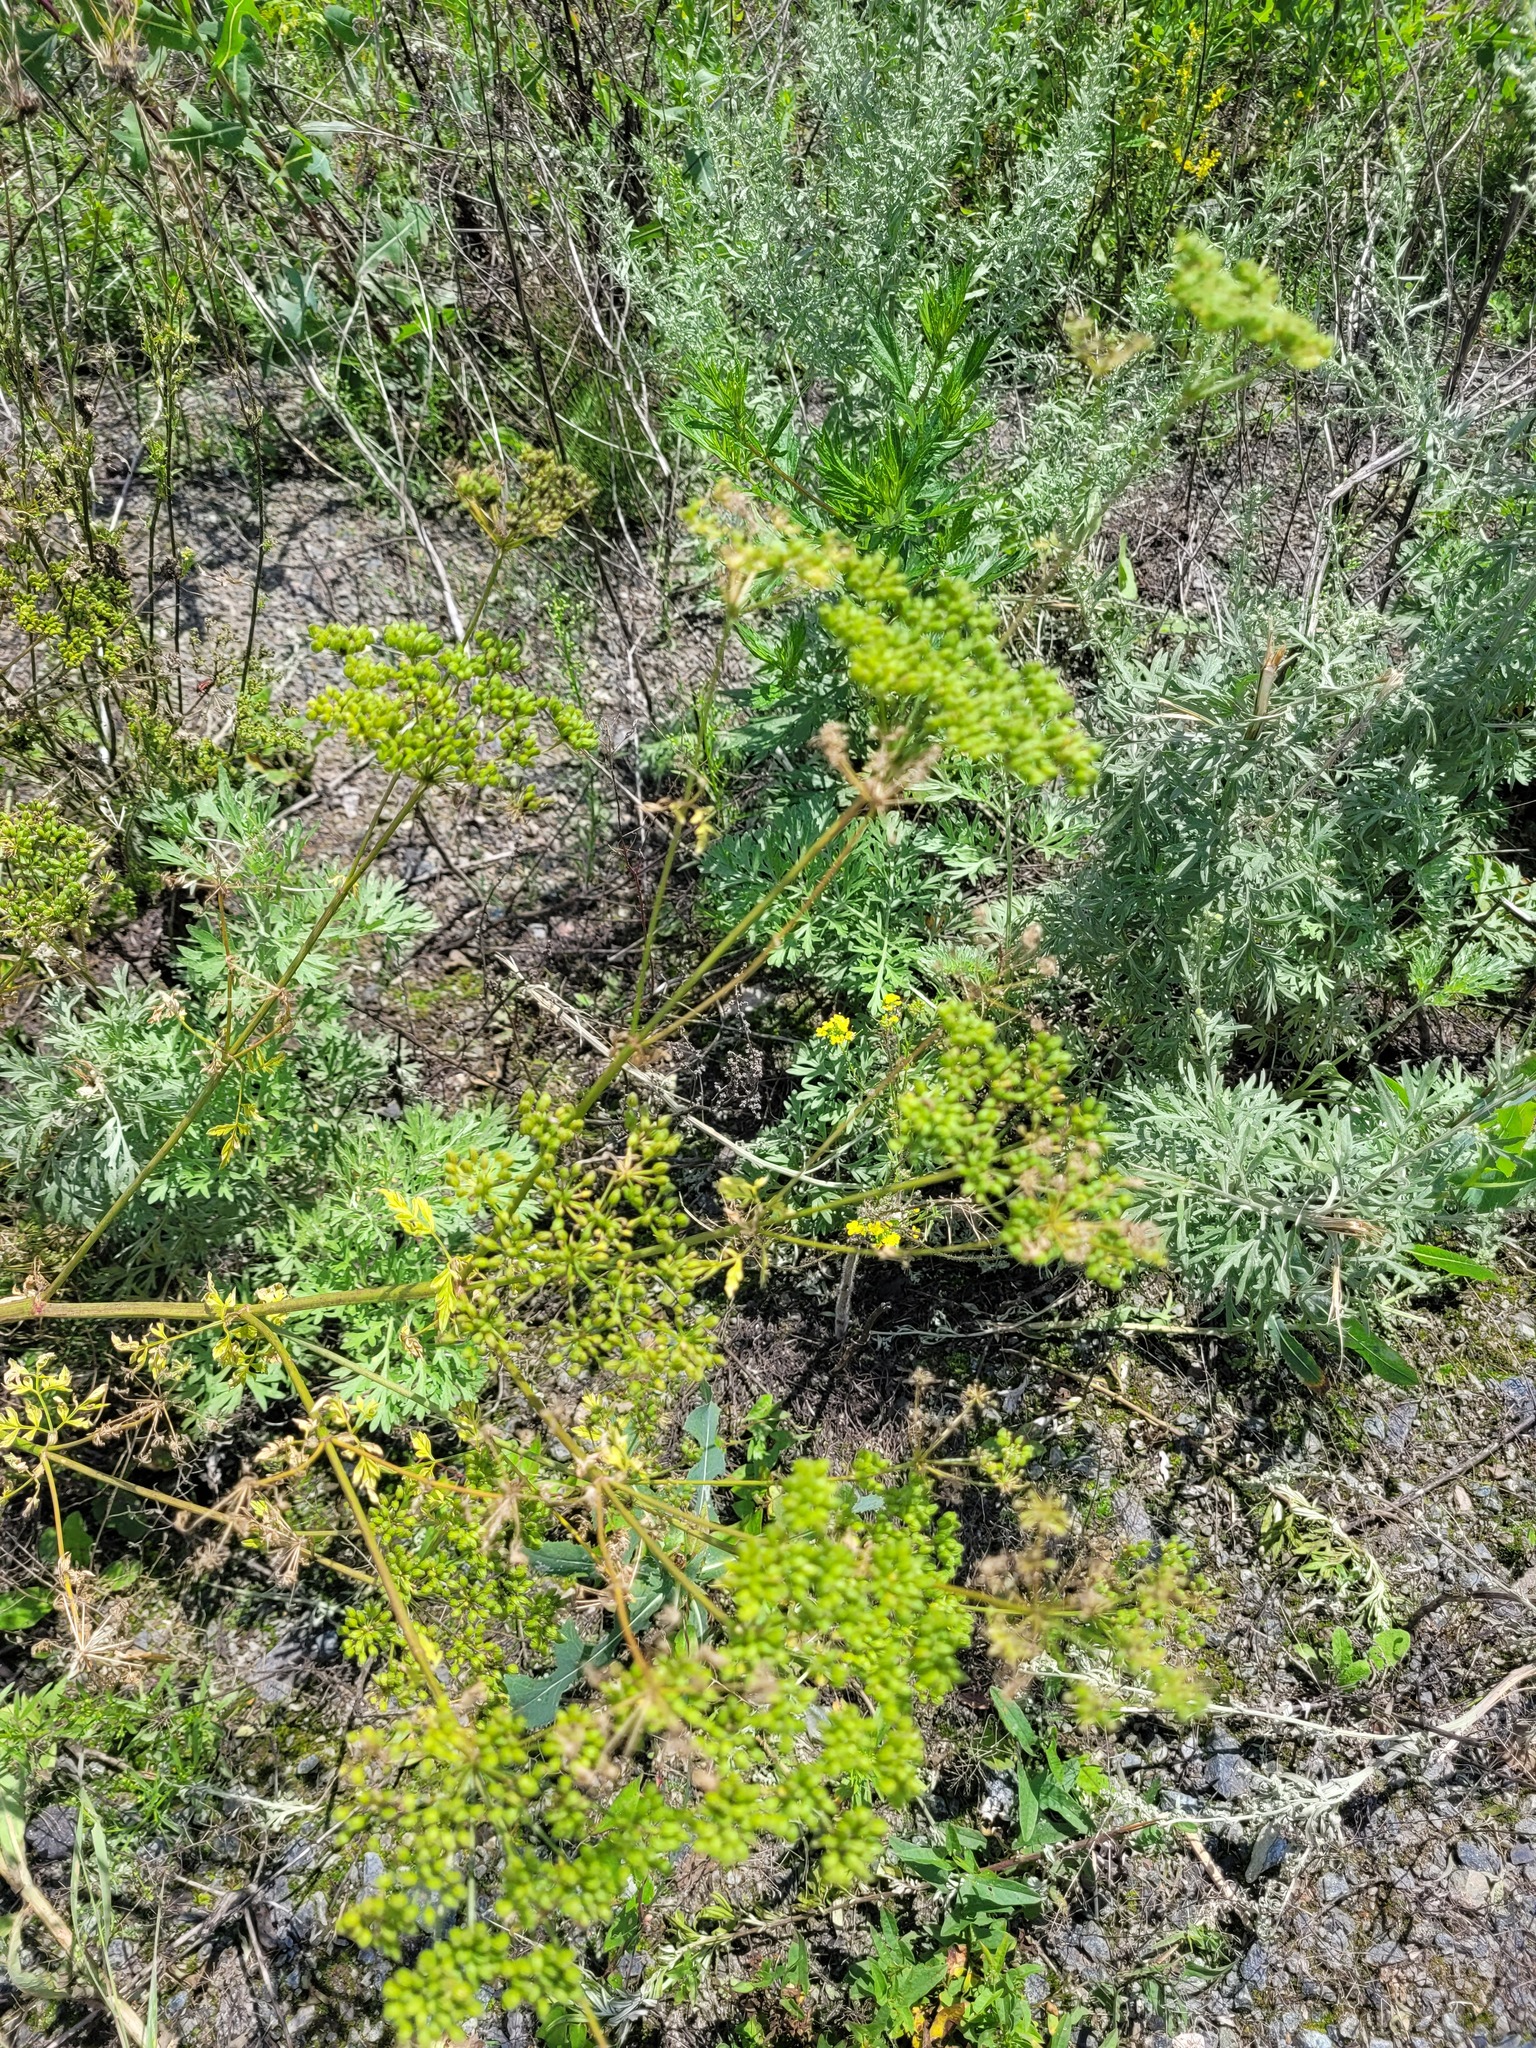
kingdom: Plantae
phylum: Tracheophyta
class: Magnoliopsida
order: Apiales
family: Apiaceae
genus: Conium
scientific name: Conium maculatum
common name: Hemlock
